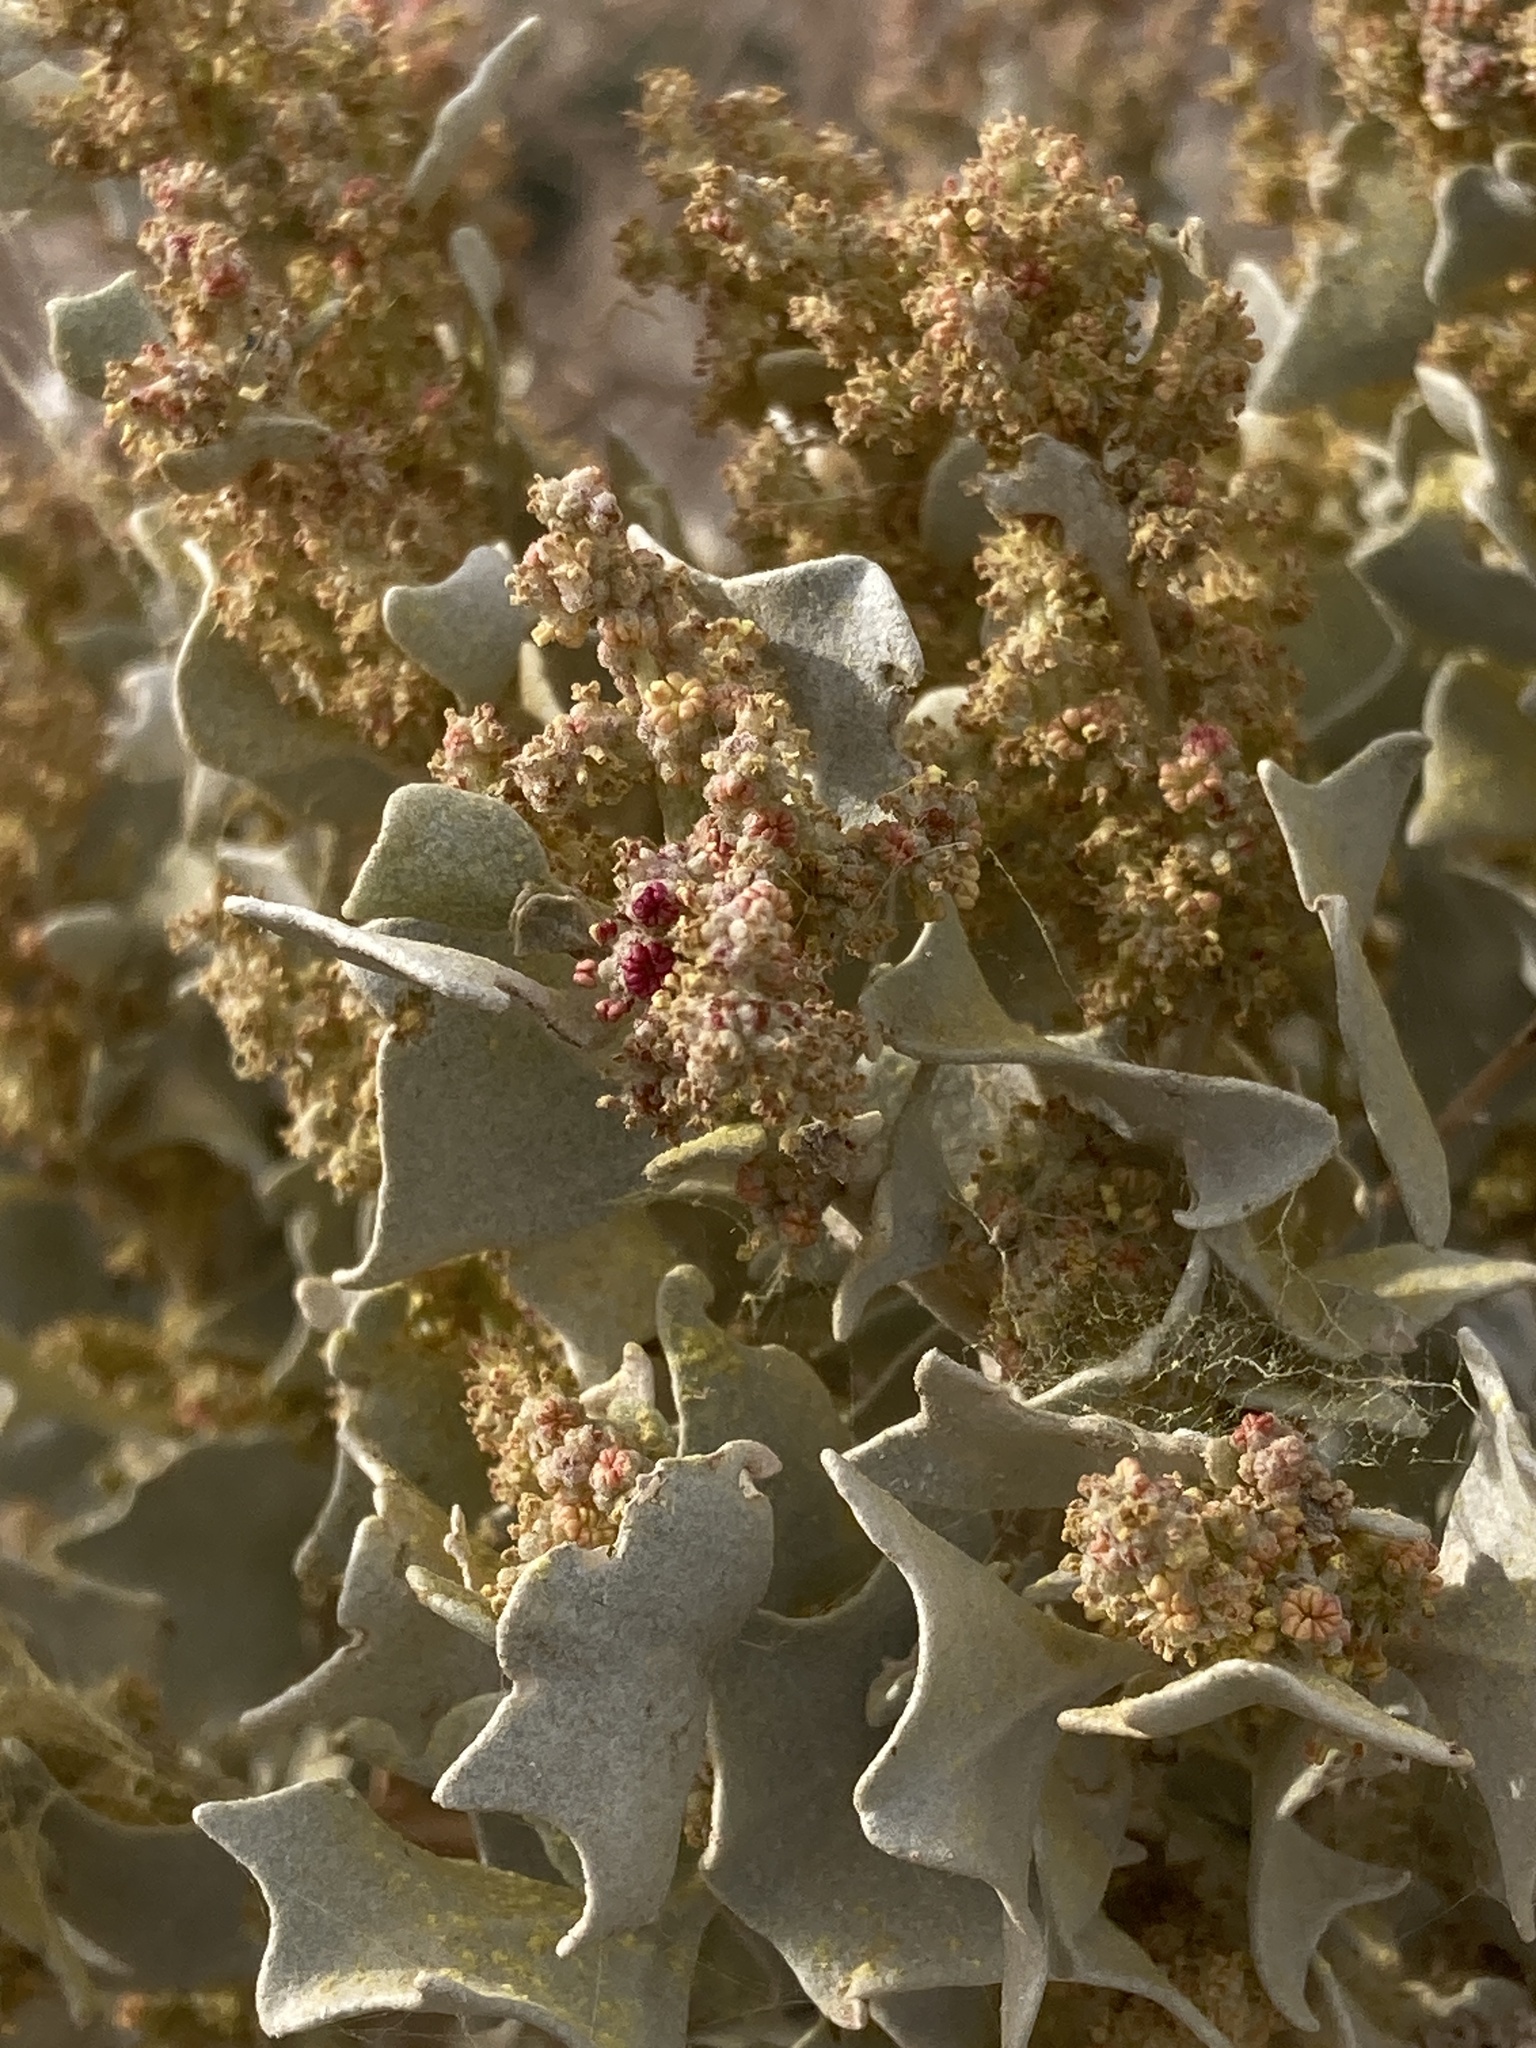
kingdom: Plantae
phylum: Tracheophyta
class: Magnoliopsida
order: Caryophyllales
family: Amaranthaceae
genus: Atriplex
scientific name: Atriplex hymenelytra
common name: Desert-holly
